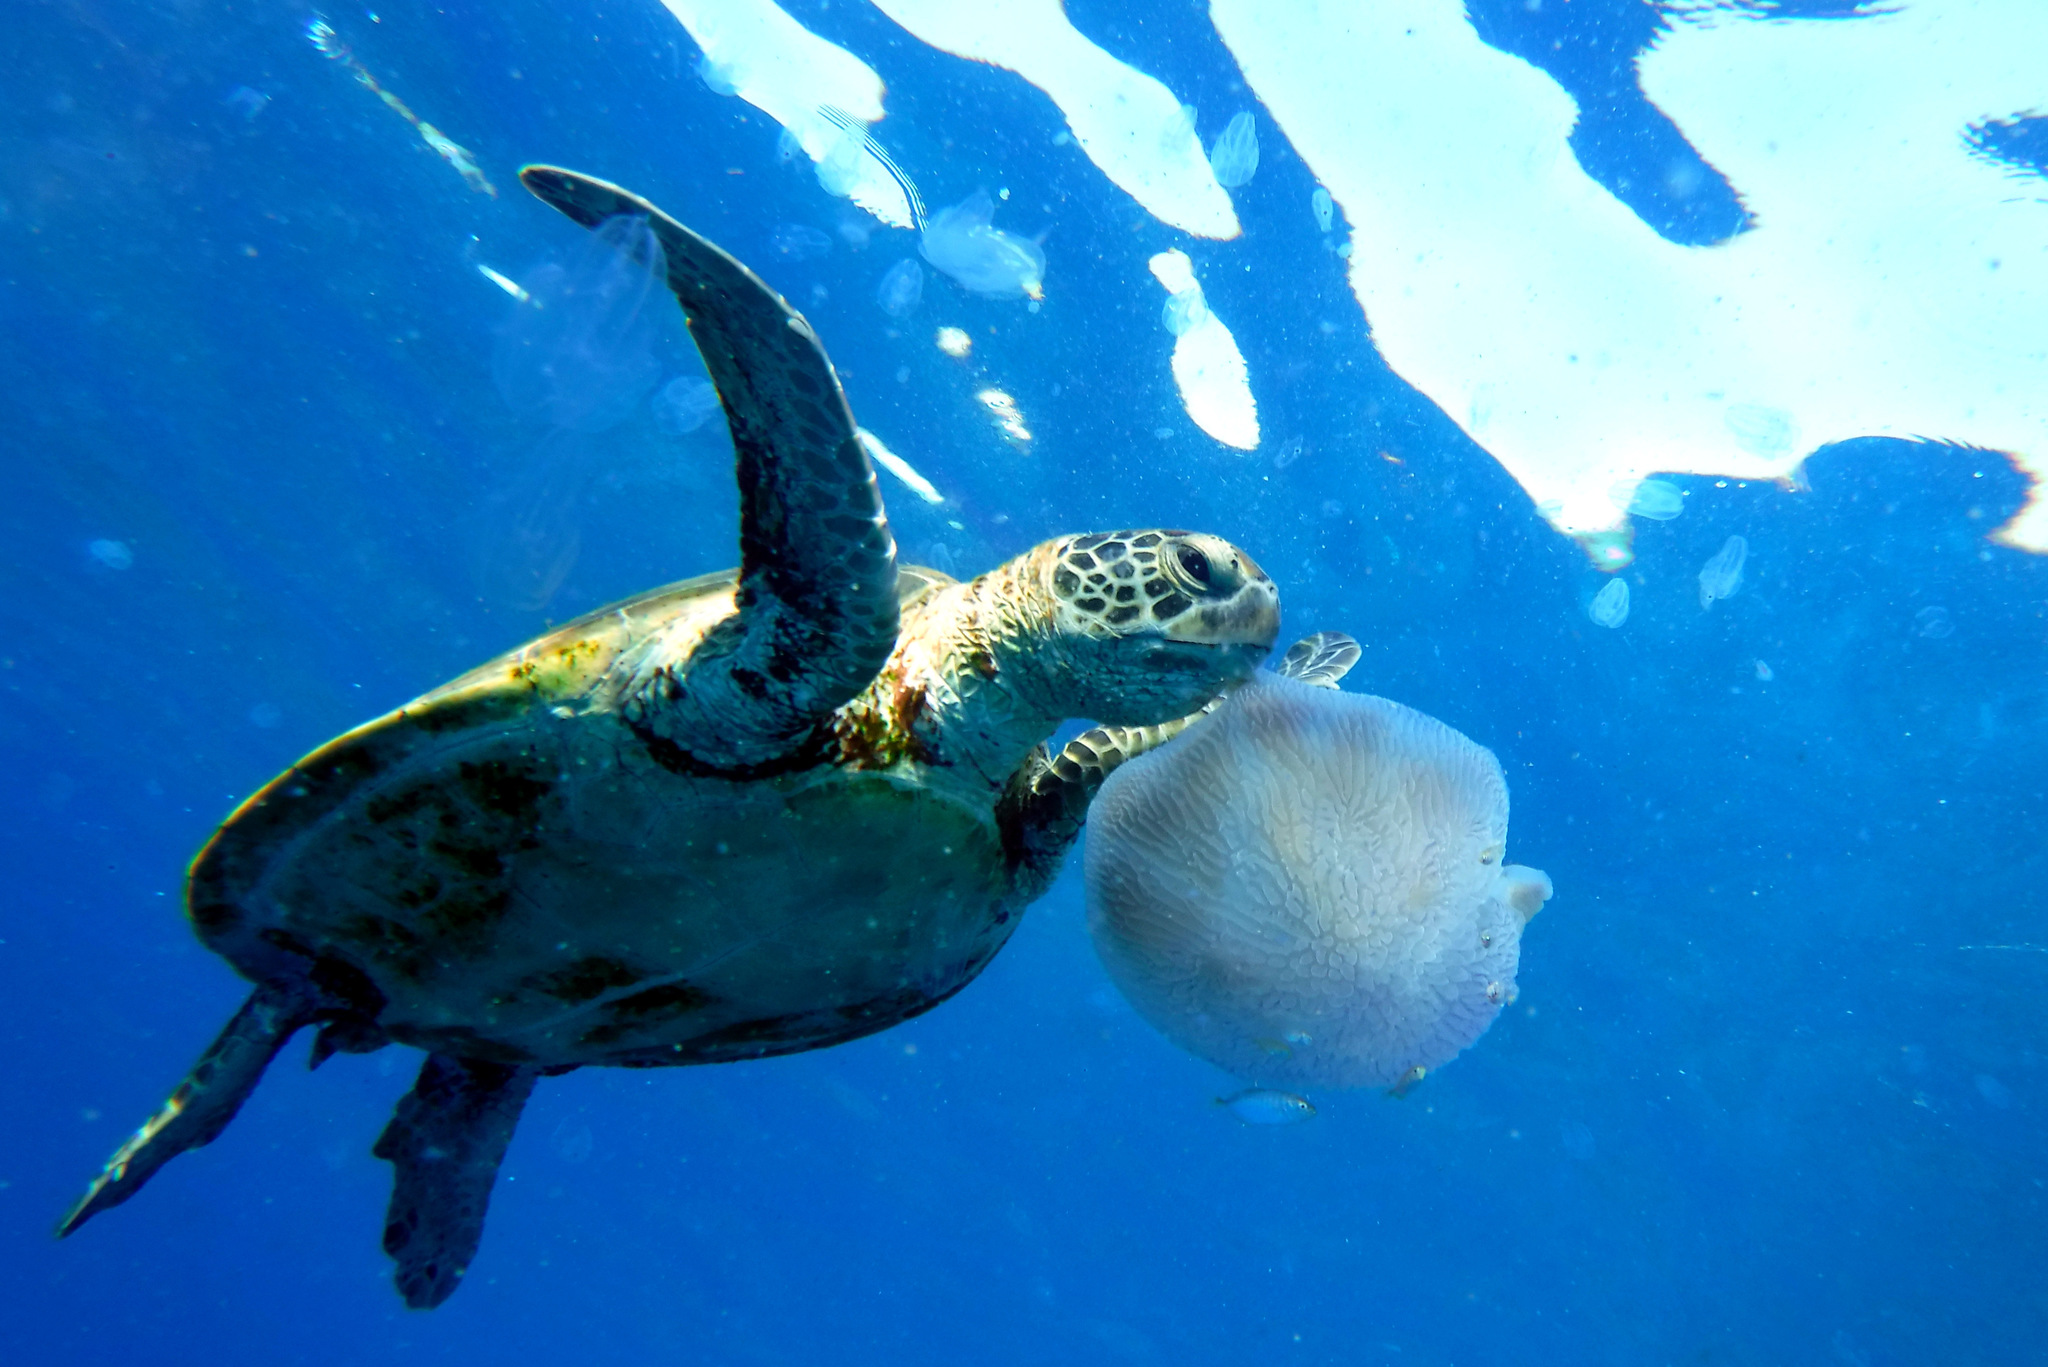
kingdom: Animalia
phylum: Chordata
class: Testudines
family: Cheloniidae
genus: Chelonia
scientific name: Chelonia mydas
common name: Green turtle
